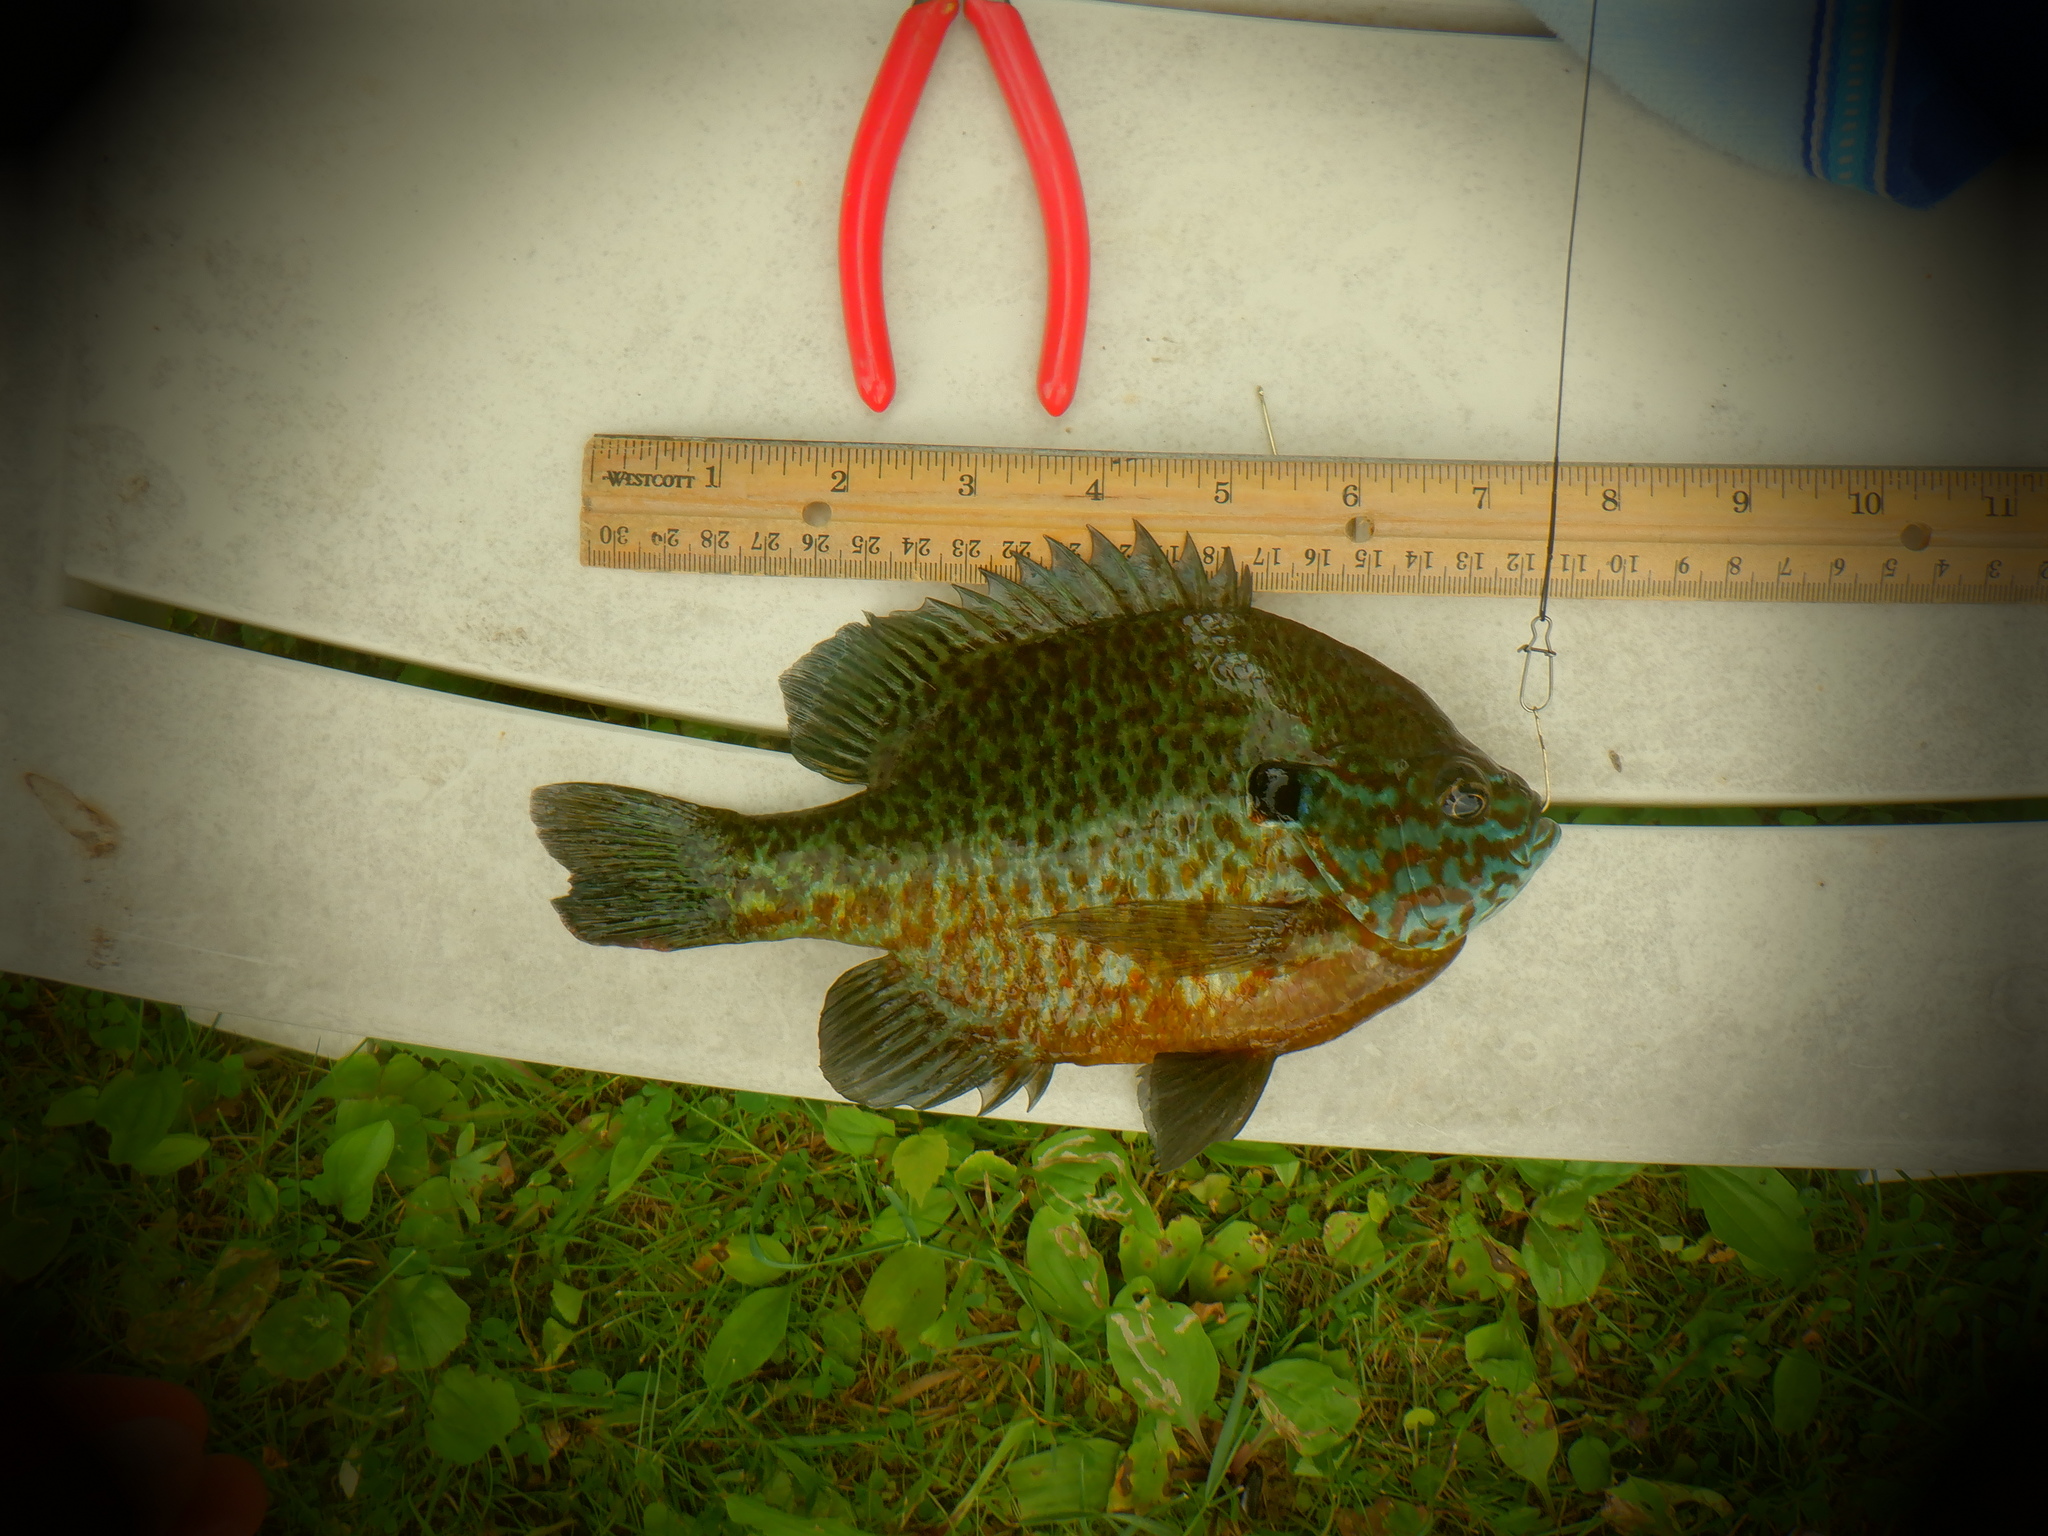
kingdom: Animalia
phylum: Chordata
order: Perciformes
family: Centrarchidae
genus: Lepomis
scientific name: Lepomis
